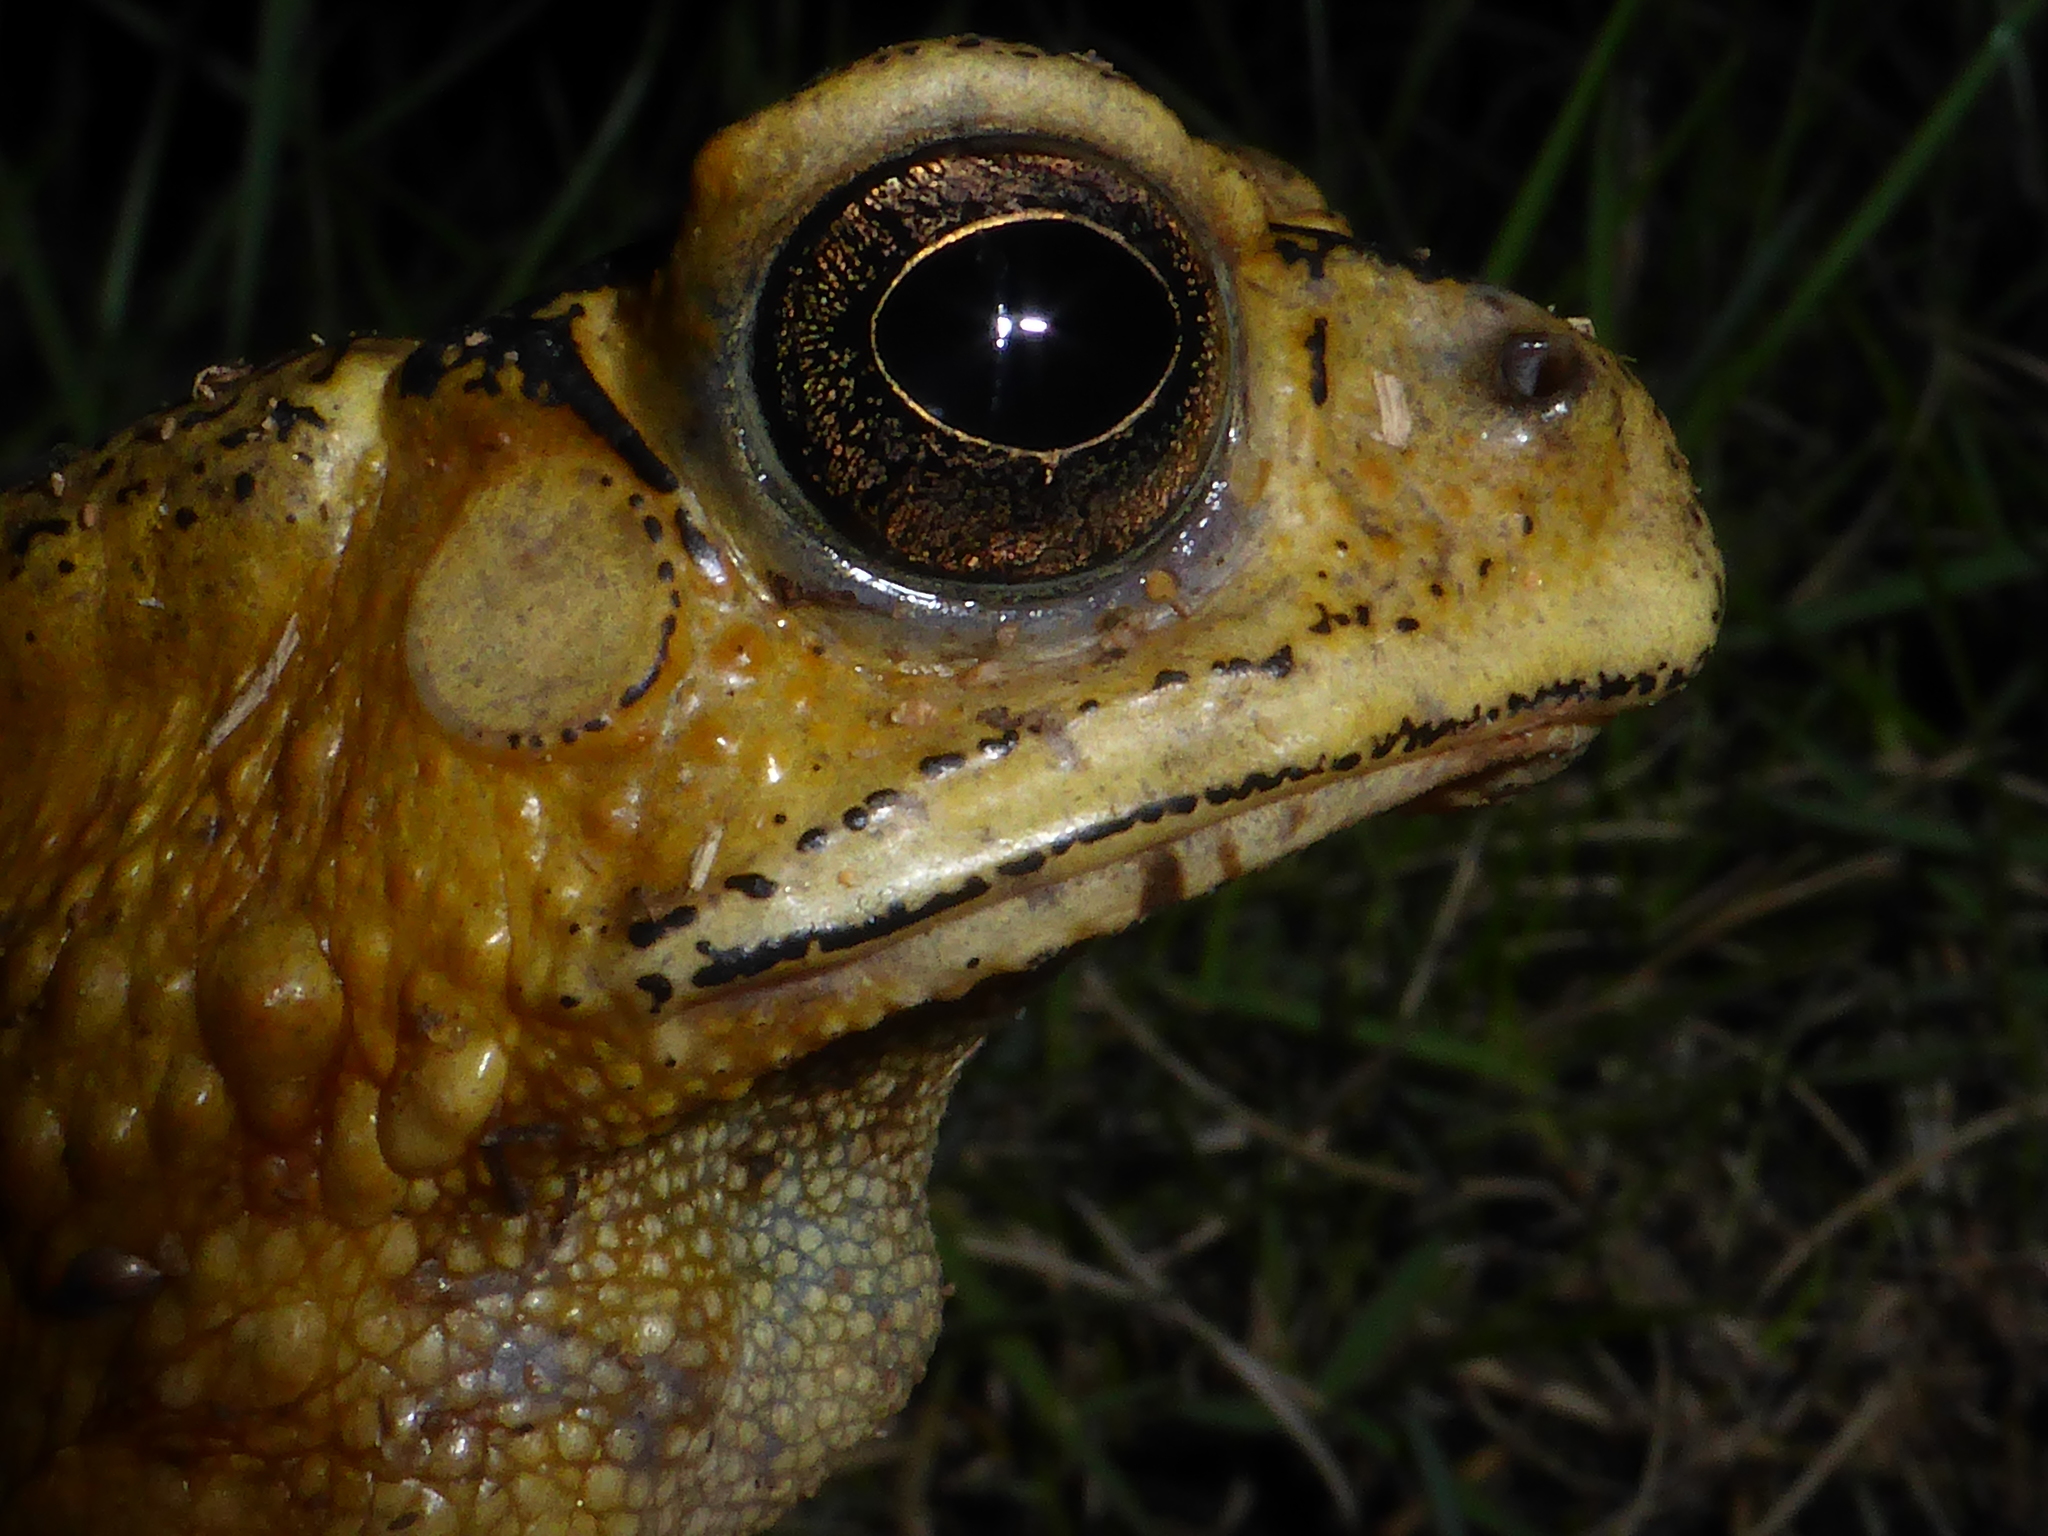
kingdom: Animalia
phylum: Chordata
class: Amphibia
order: Anura
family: Bufonidae
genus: Duttaphrynus
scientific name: Duttaphrynus melanostictus
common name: Common sunda toad
